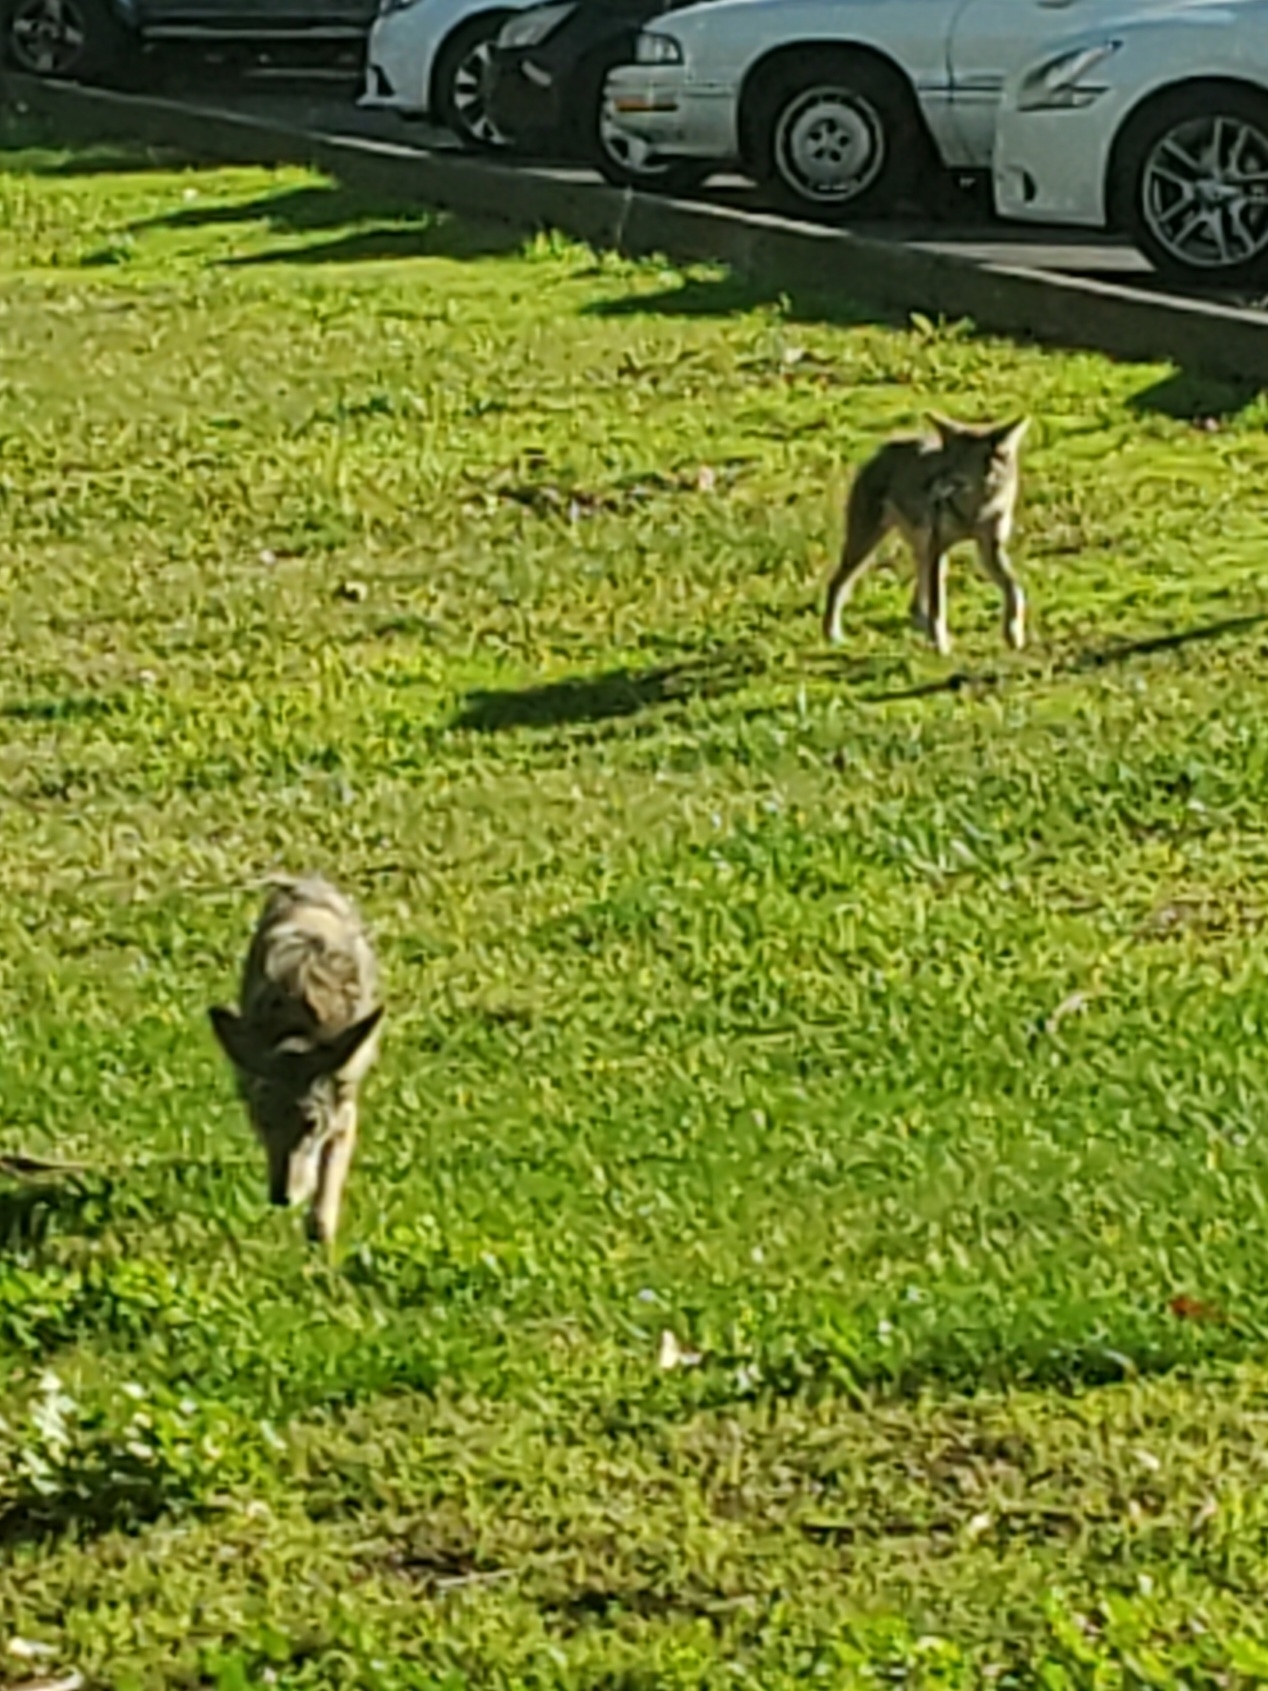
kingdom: Animalia
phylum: Chordata
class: Mammalia
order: Carnivora
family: Canidae
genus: Canis
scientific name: Canis latrans
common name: Coyote
